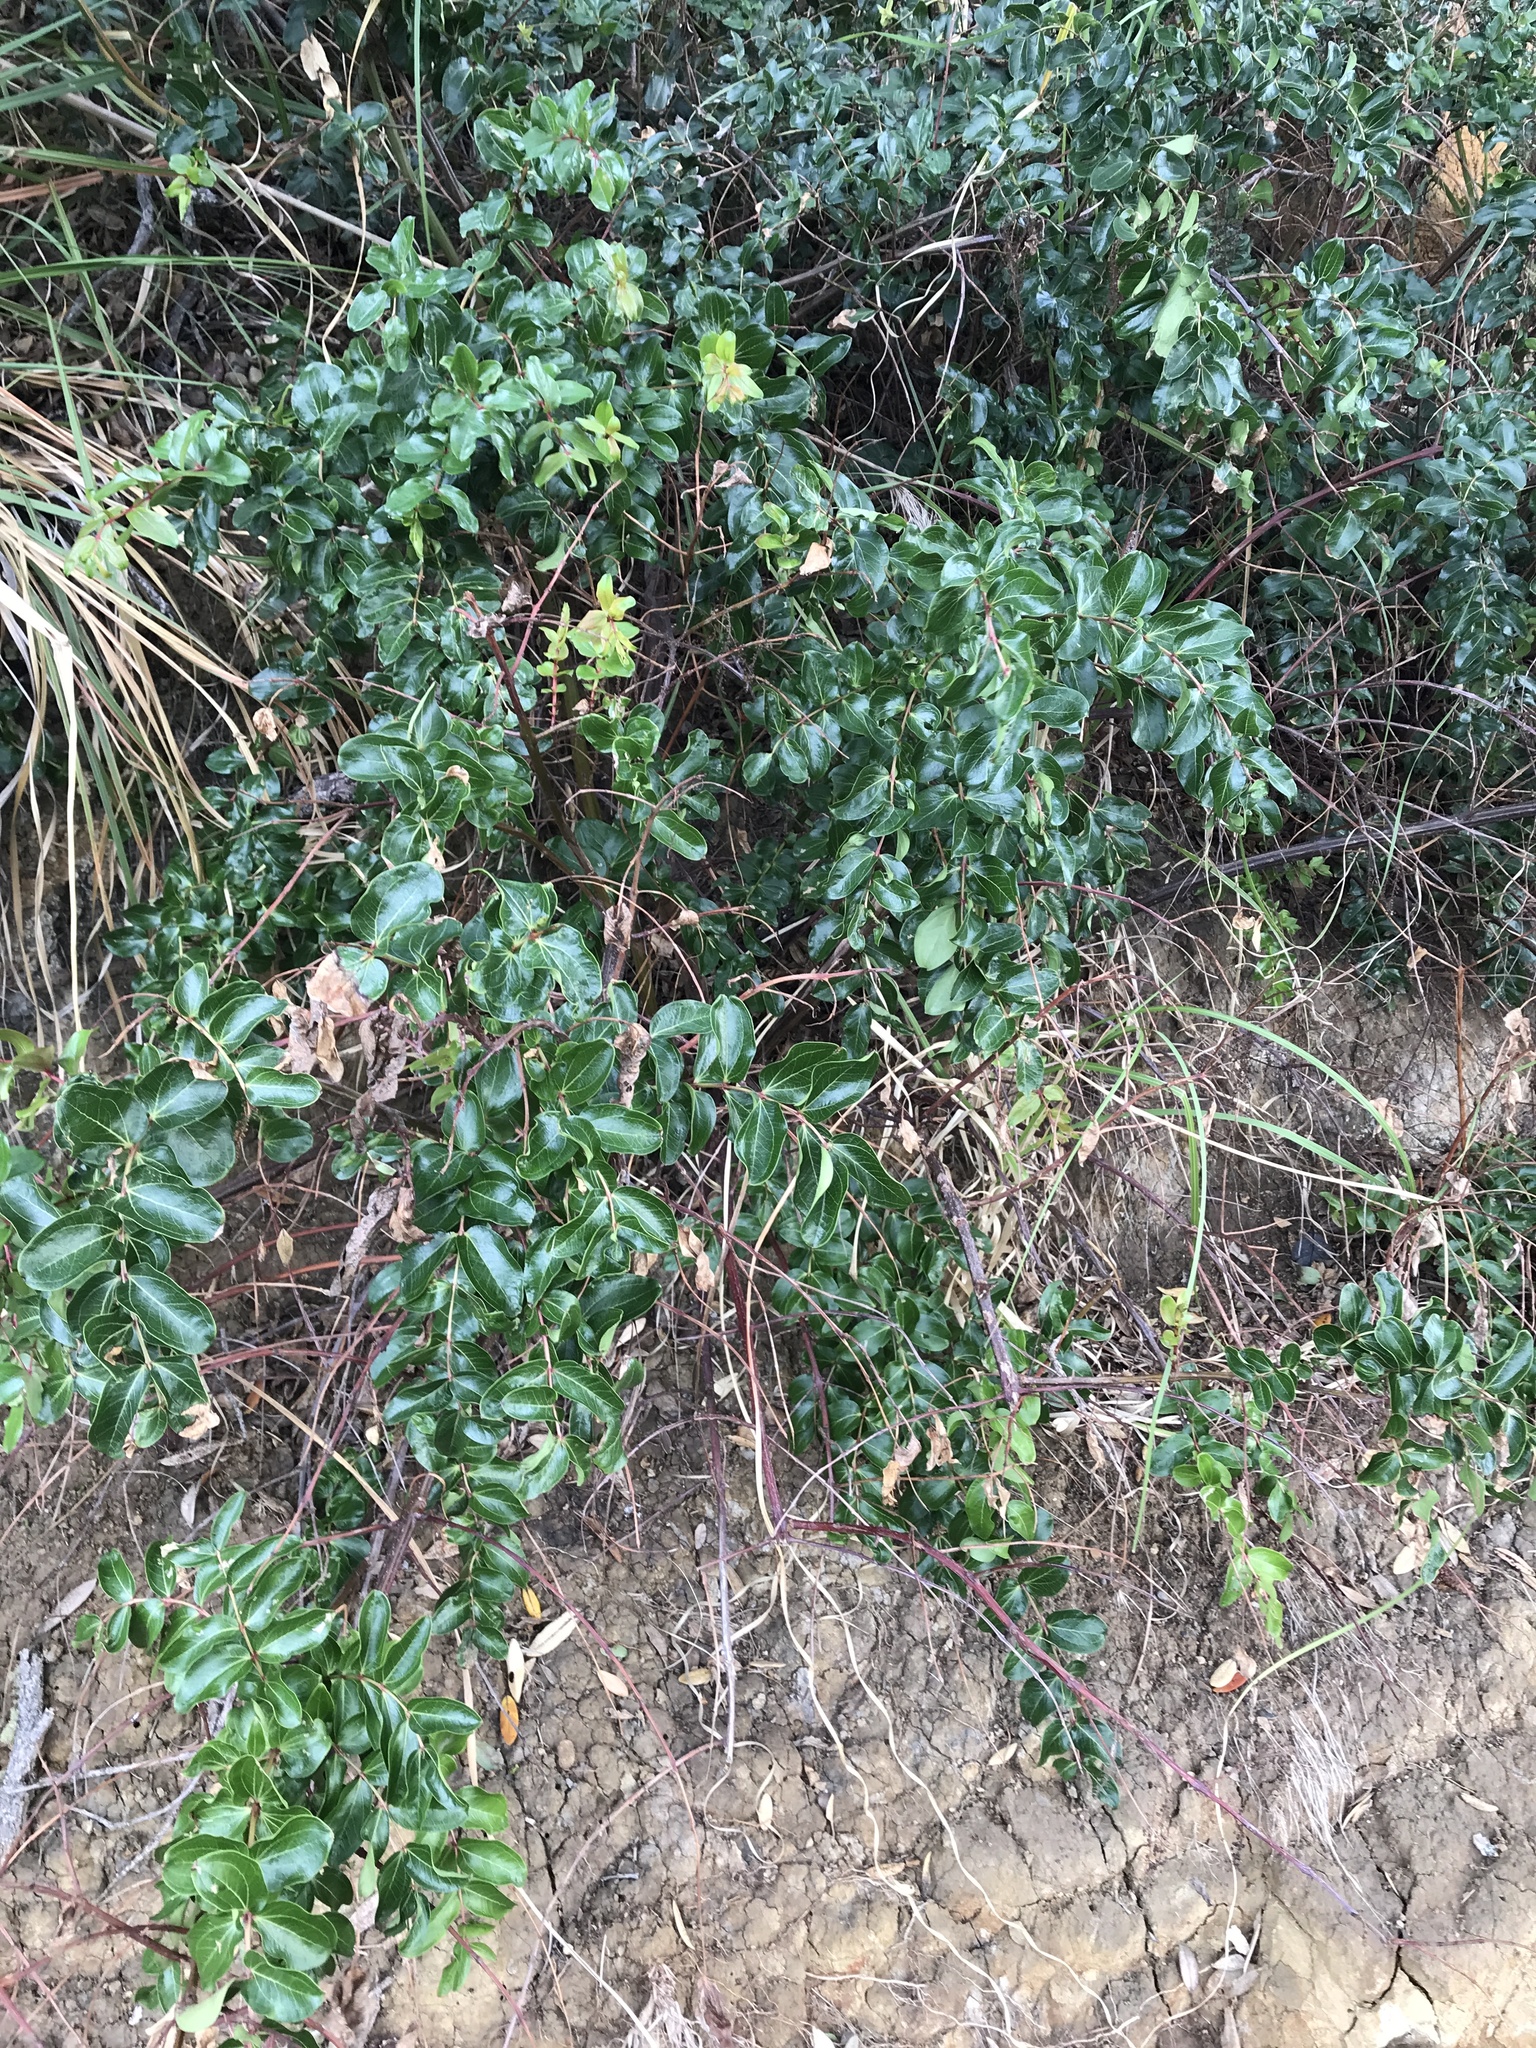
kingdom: Plantae
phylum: Tracheophyta
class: Magnoliopsida
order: Cucurbitales
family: Coriariaceae
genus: Coriaria
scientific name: Coriaria arborea
